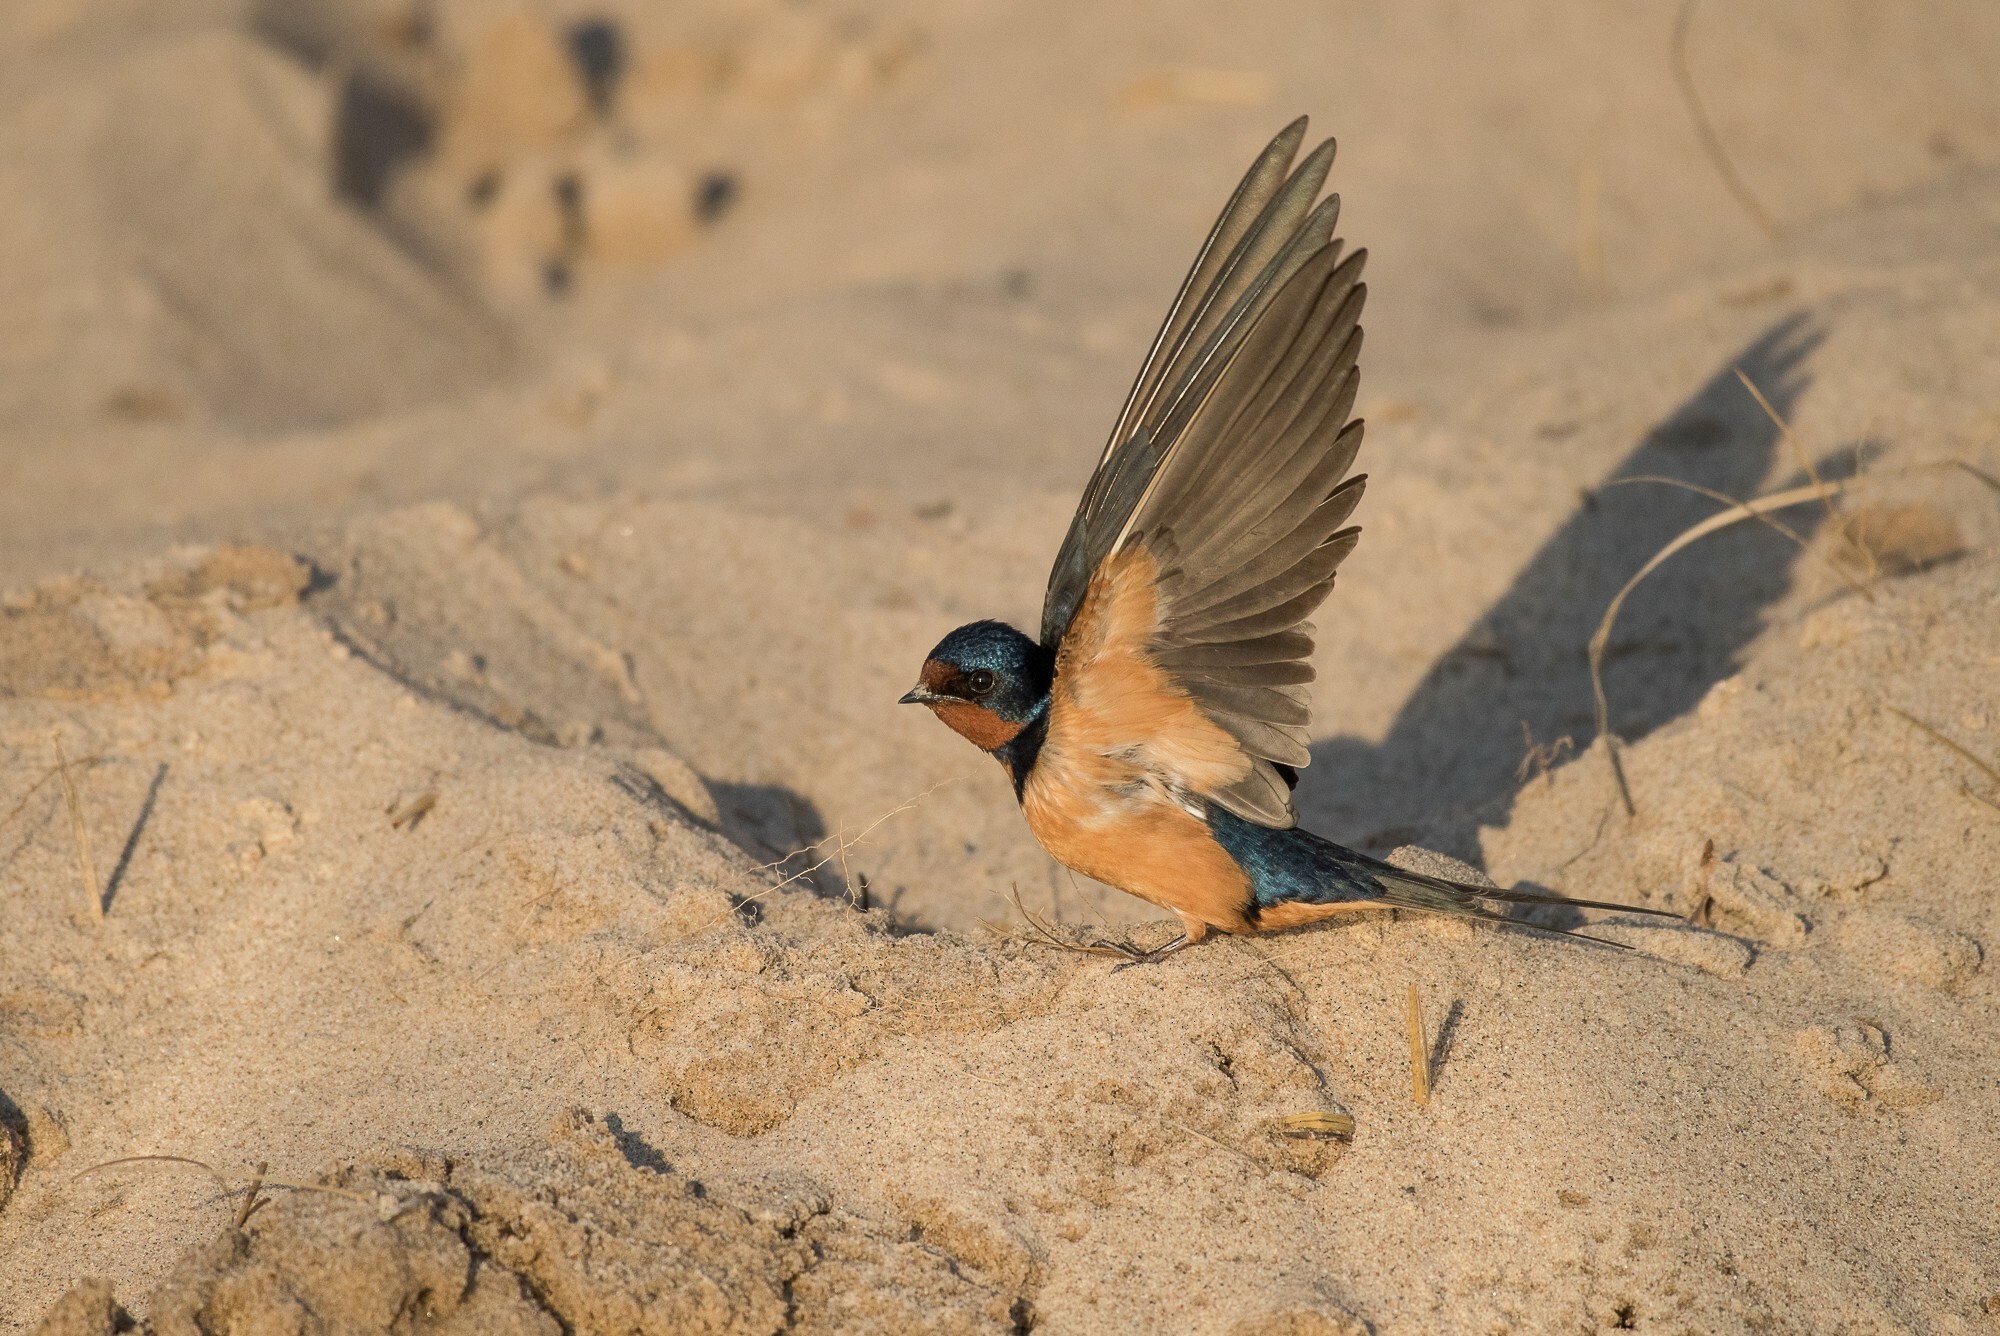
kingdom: Animalia
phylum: Chordata
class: Aves
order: Passeriformes
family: Hirundinidae
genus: Hirundo
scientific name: Hirundo rustica
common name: Barn swallow
